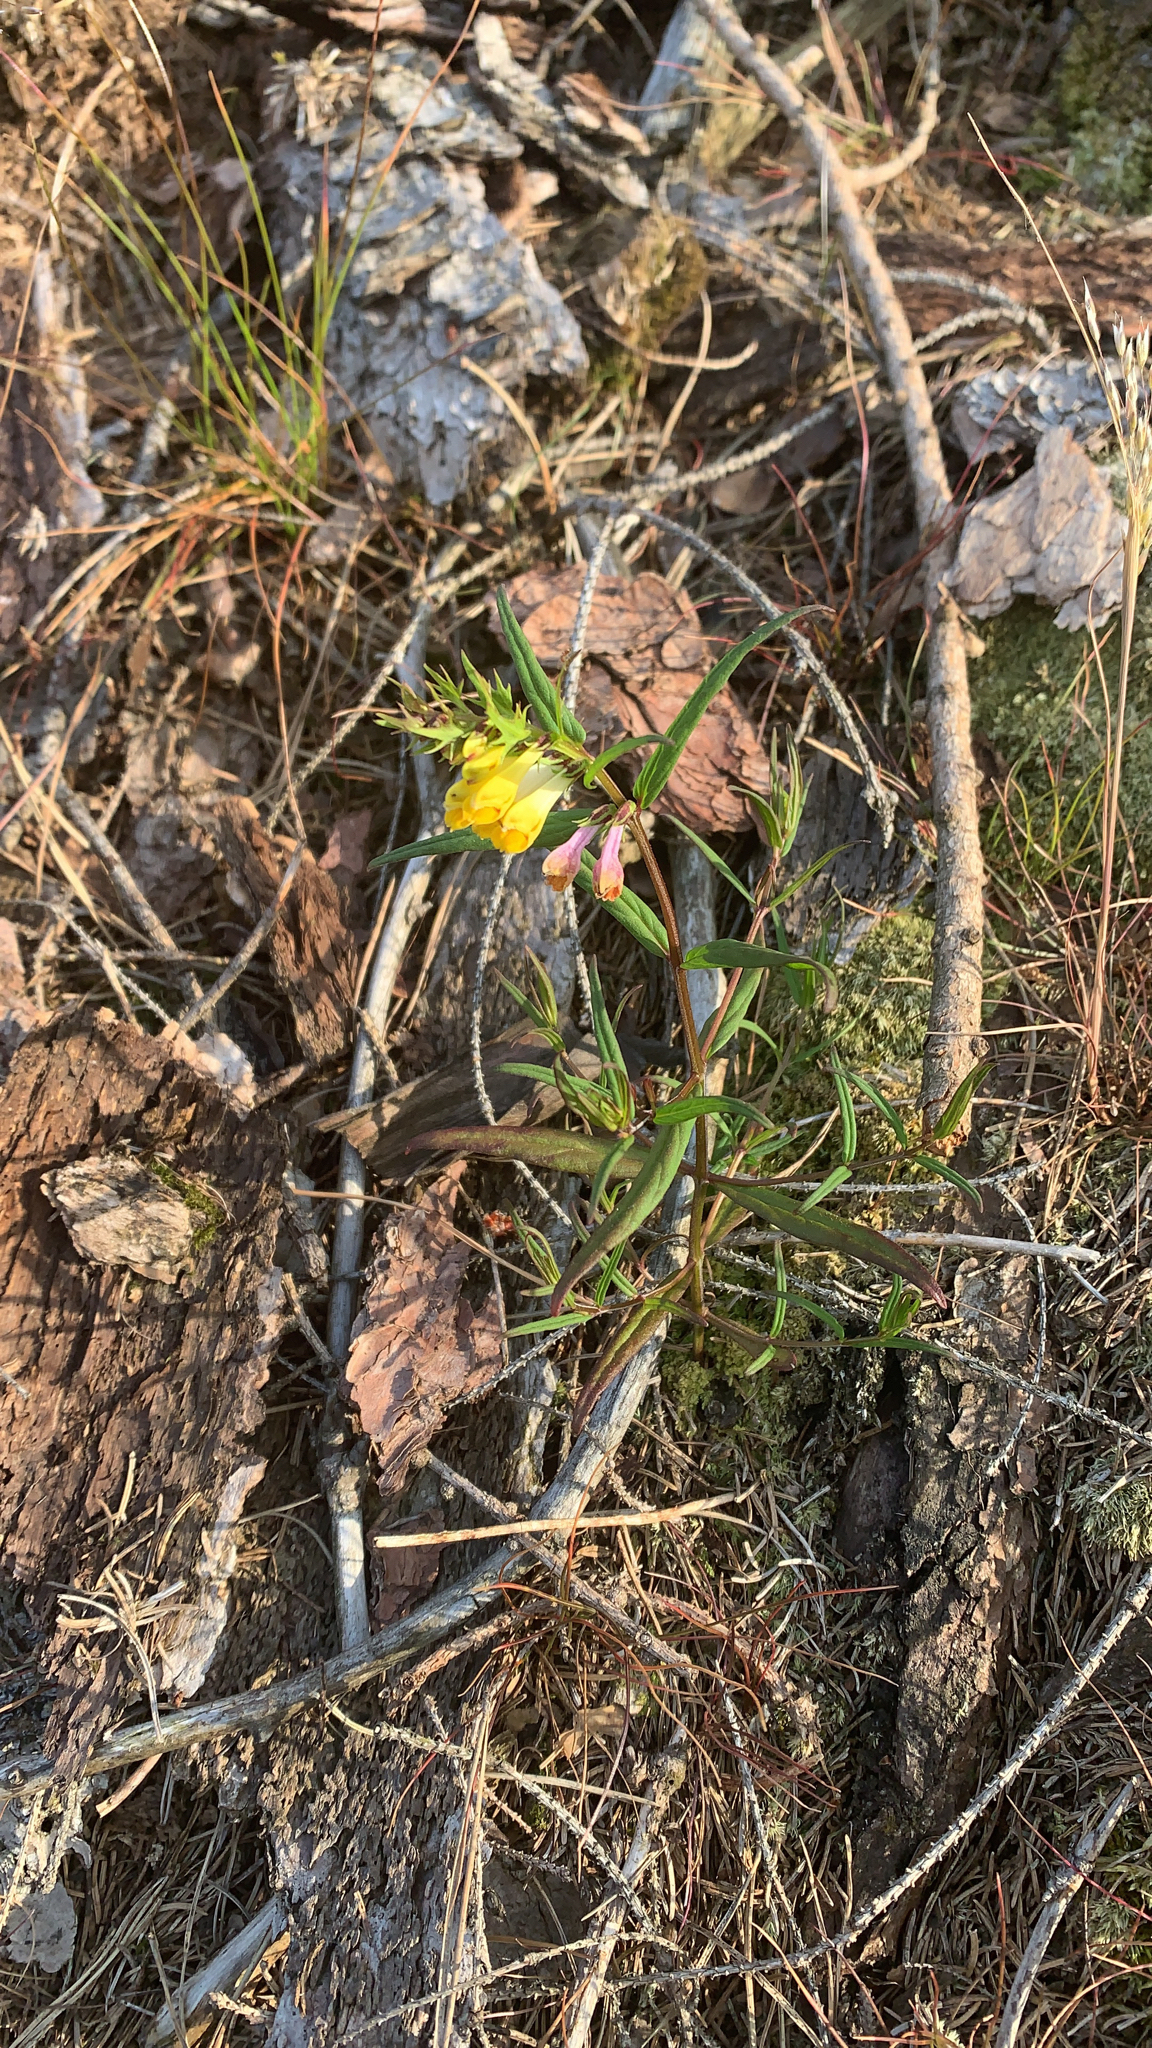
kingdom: Plantae
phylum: Tracheophyta
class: Magnoliopsida
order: Lamiales
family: Orobanchaceae
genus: Melampyrum
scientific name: Melampyrum pratense
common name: Common cow-wheat
